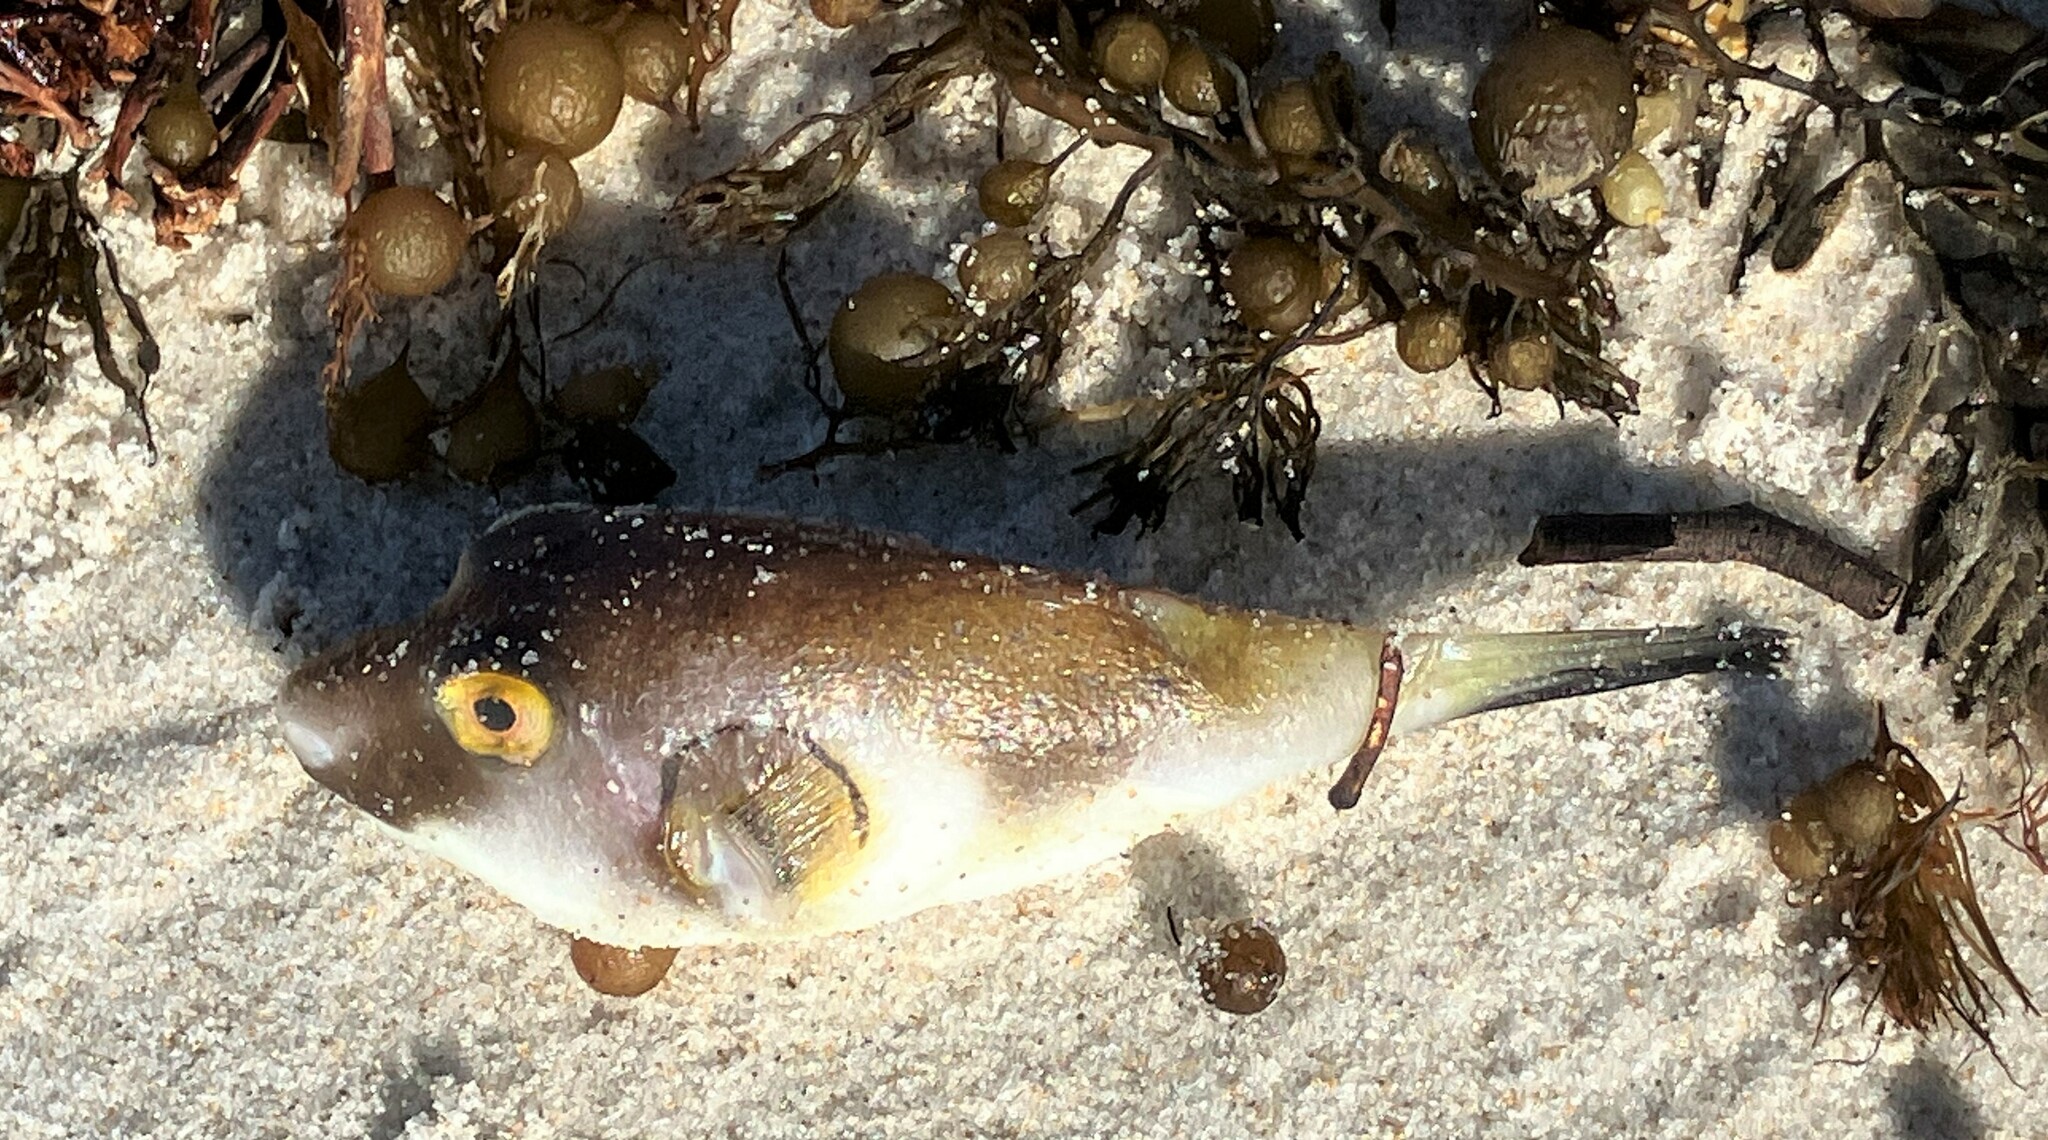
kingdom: Animalia
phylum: Chordata
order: Tetraodontiformes
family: Tetraodontidae
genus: Omegophora
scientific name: Omegophora armilla
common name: Ringed pufferfish
